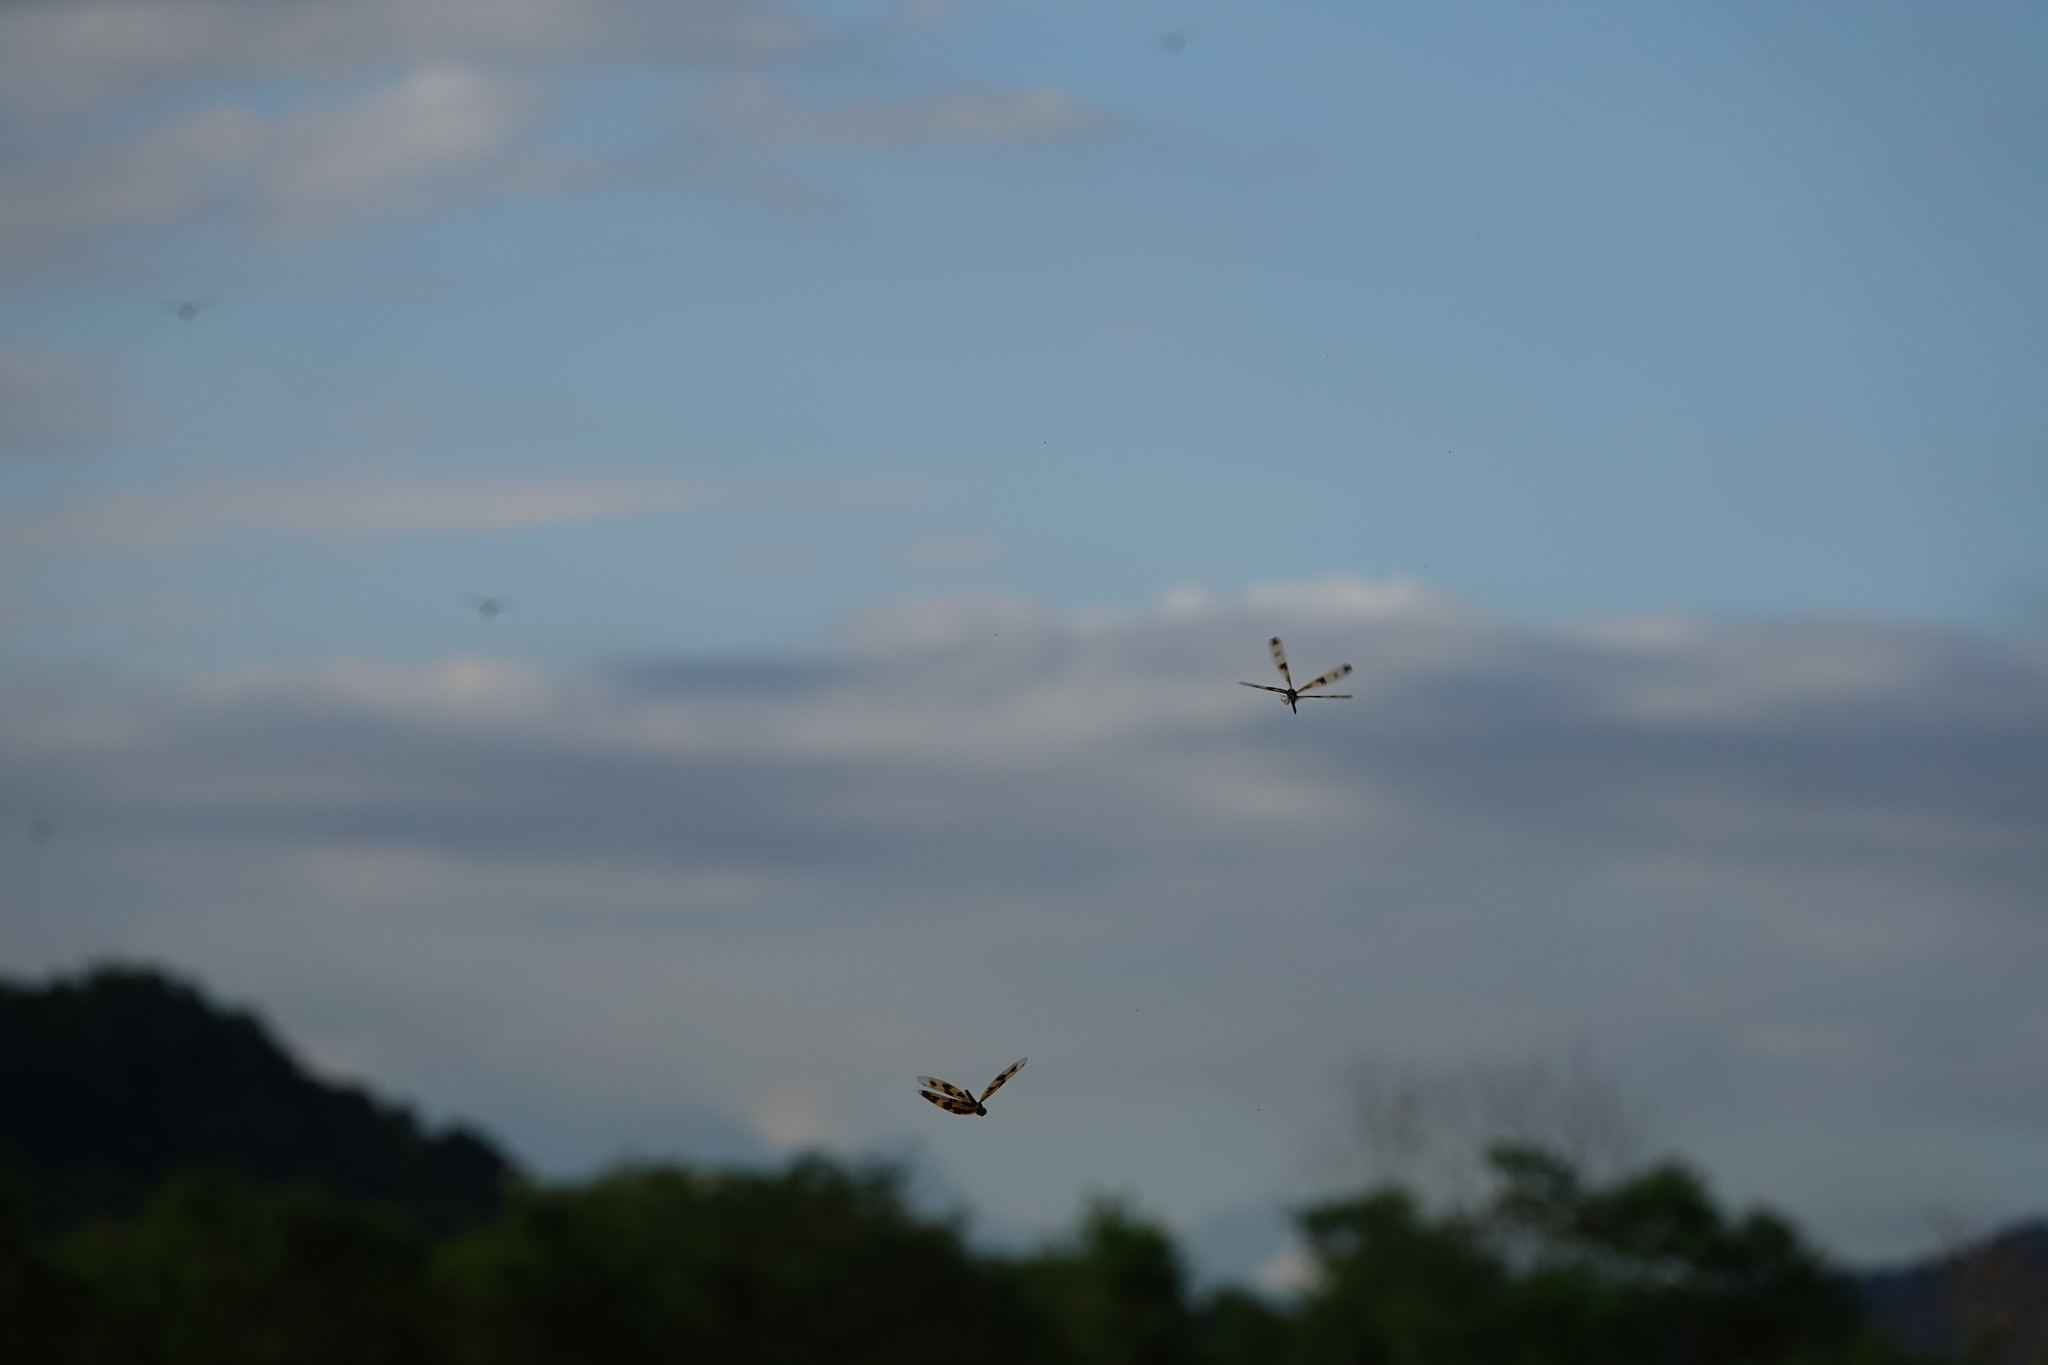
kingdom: Animalia
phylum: Arthropoda
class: Insecta
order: Odonata
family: Libellulidae
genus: Rhyothemis
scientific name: Rhyothemis variegata
